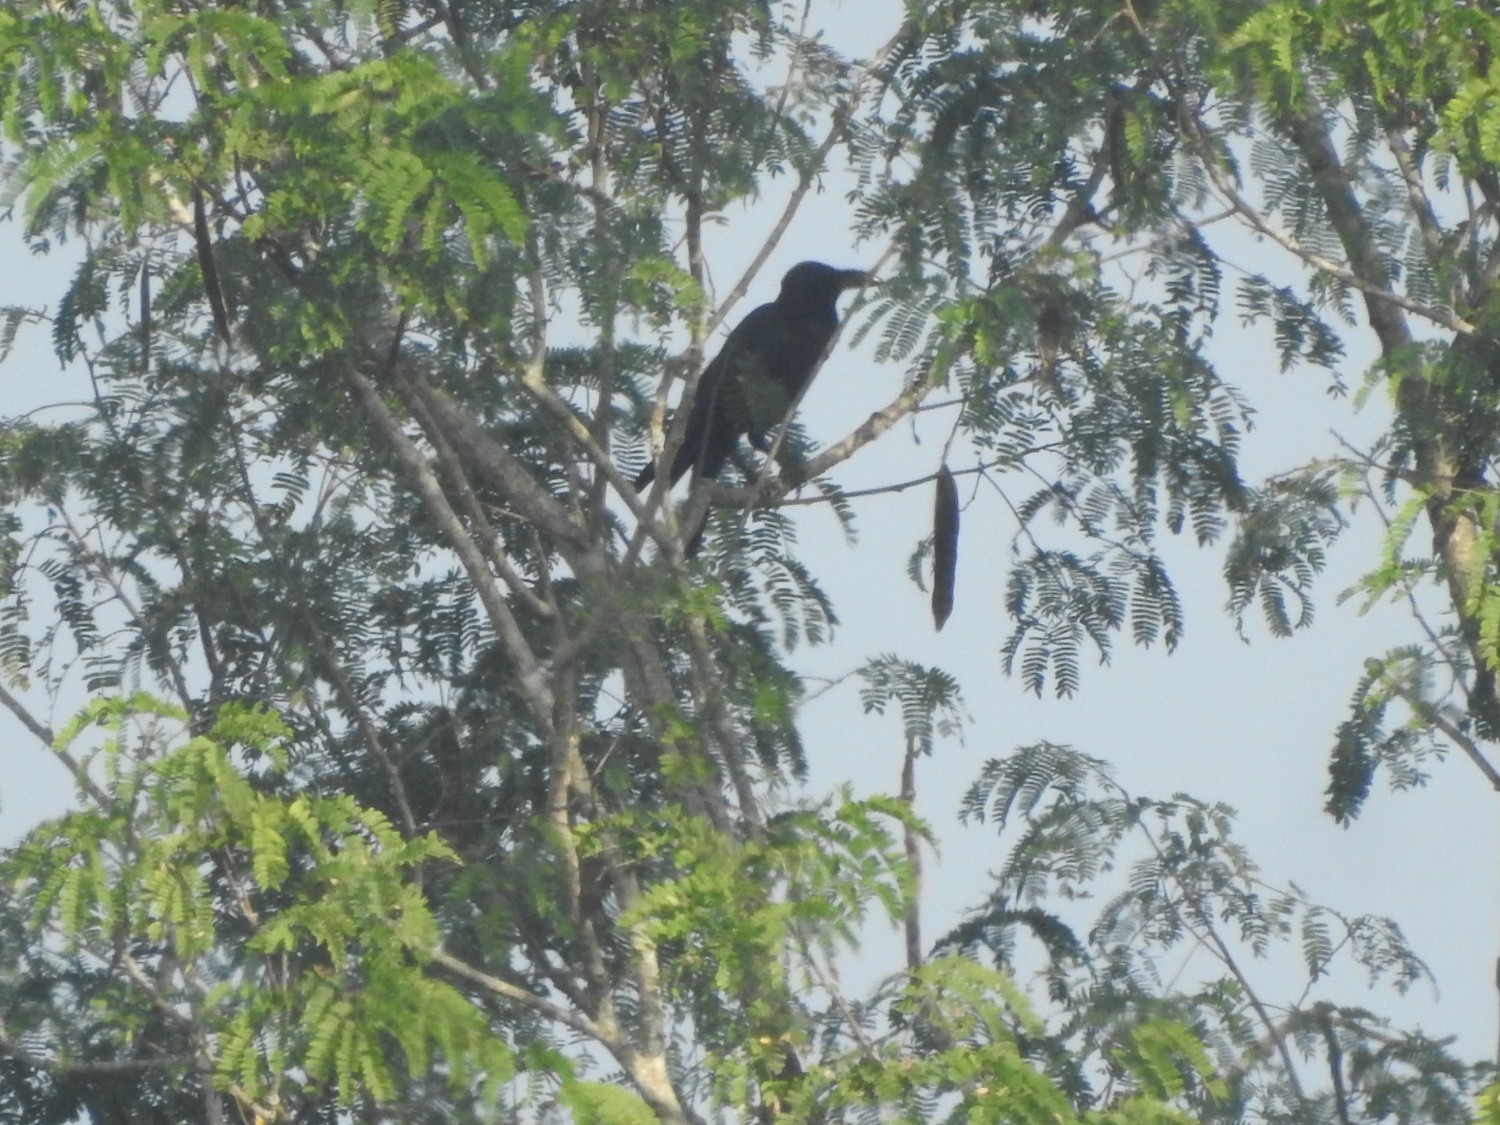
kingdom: Animalia
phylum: Chordata
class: Aves
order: Passeriformes
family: Corvidae
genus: Corvus
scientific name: Corvus macrorhynchos
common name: Large-billed crow
